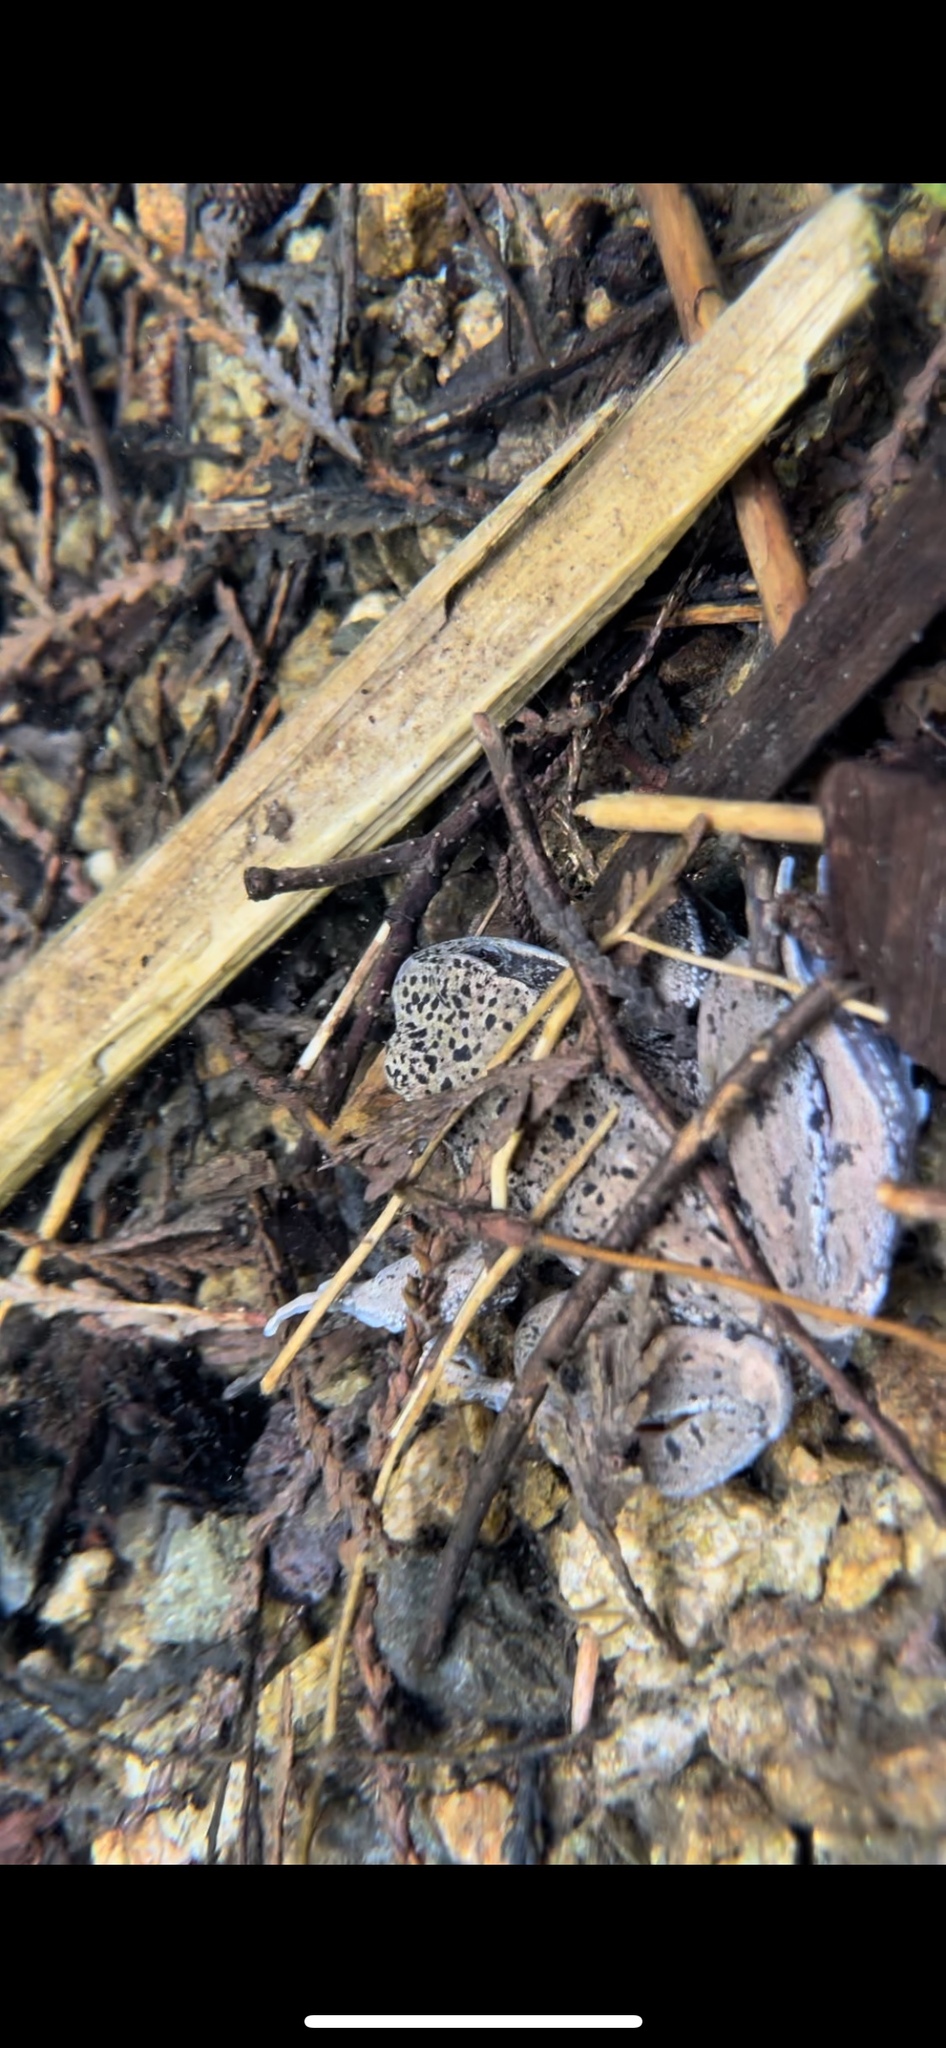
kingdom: Animalia
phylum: Chordata
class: Amphibia
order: Anura
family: Ranidae
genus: Rana
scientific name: Rana aurora
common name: Red-legged frog
